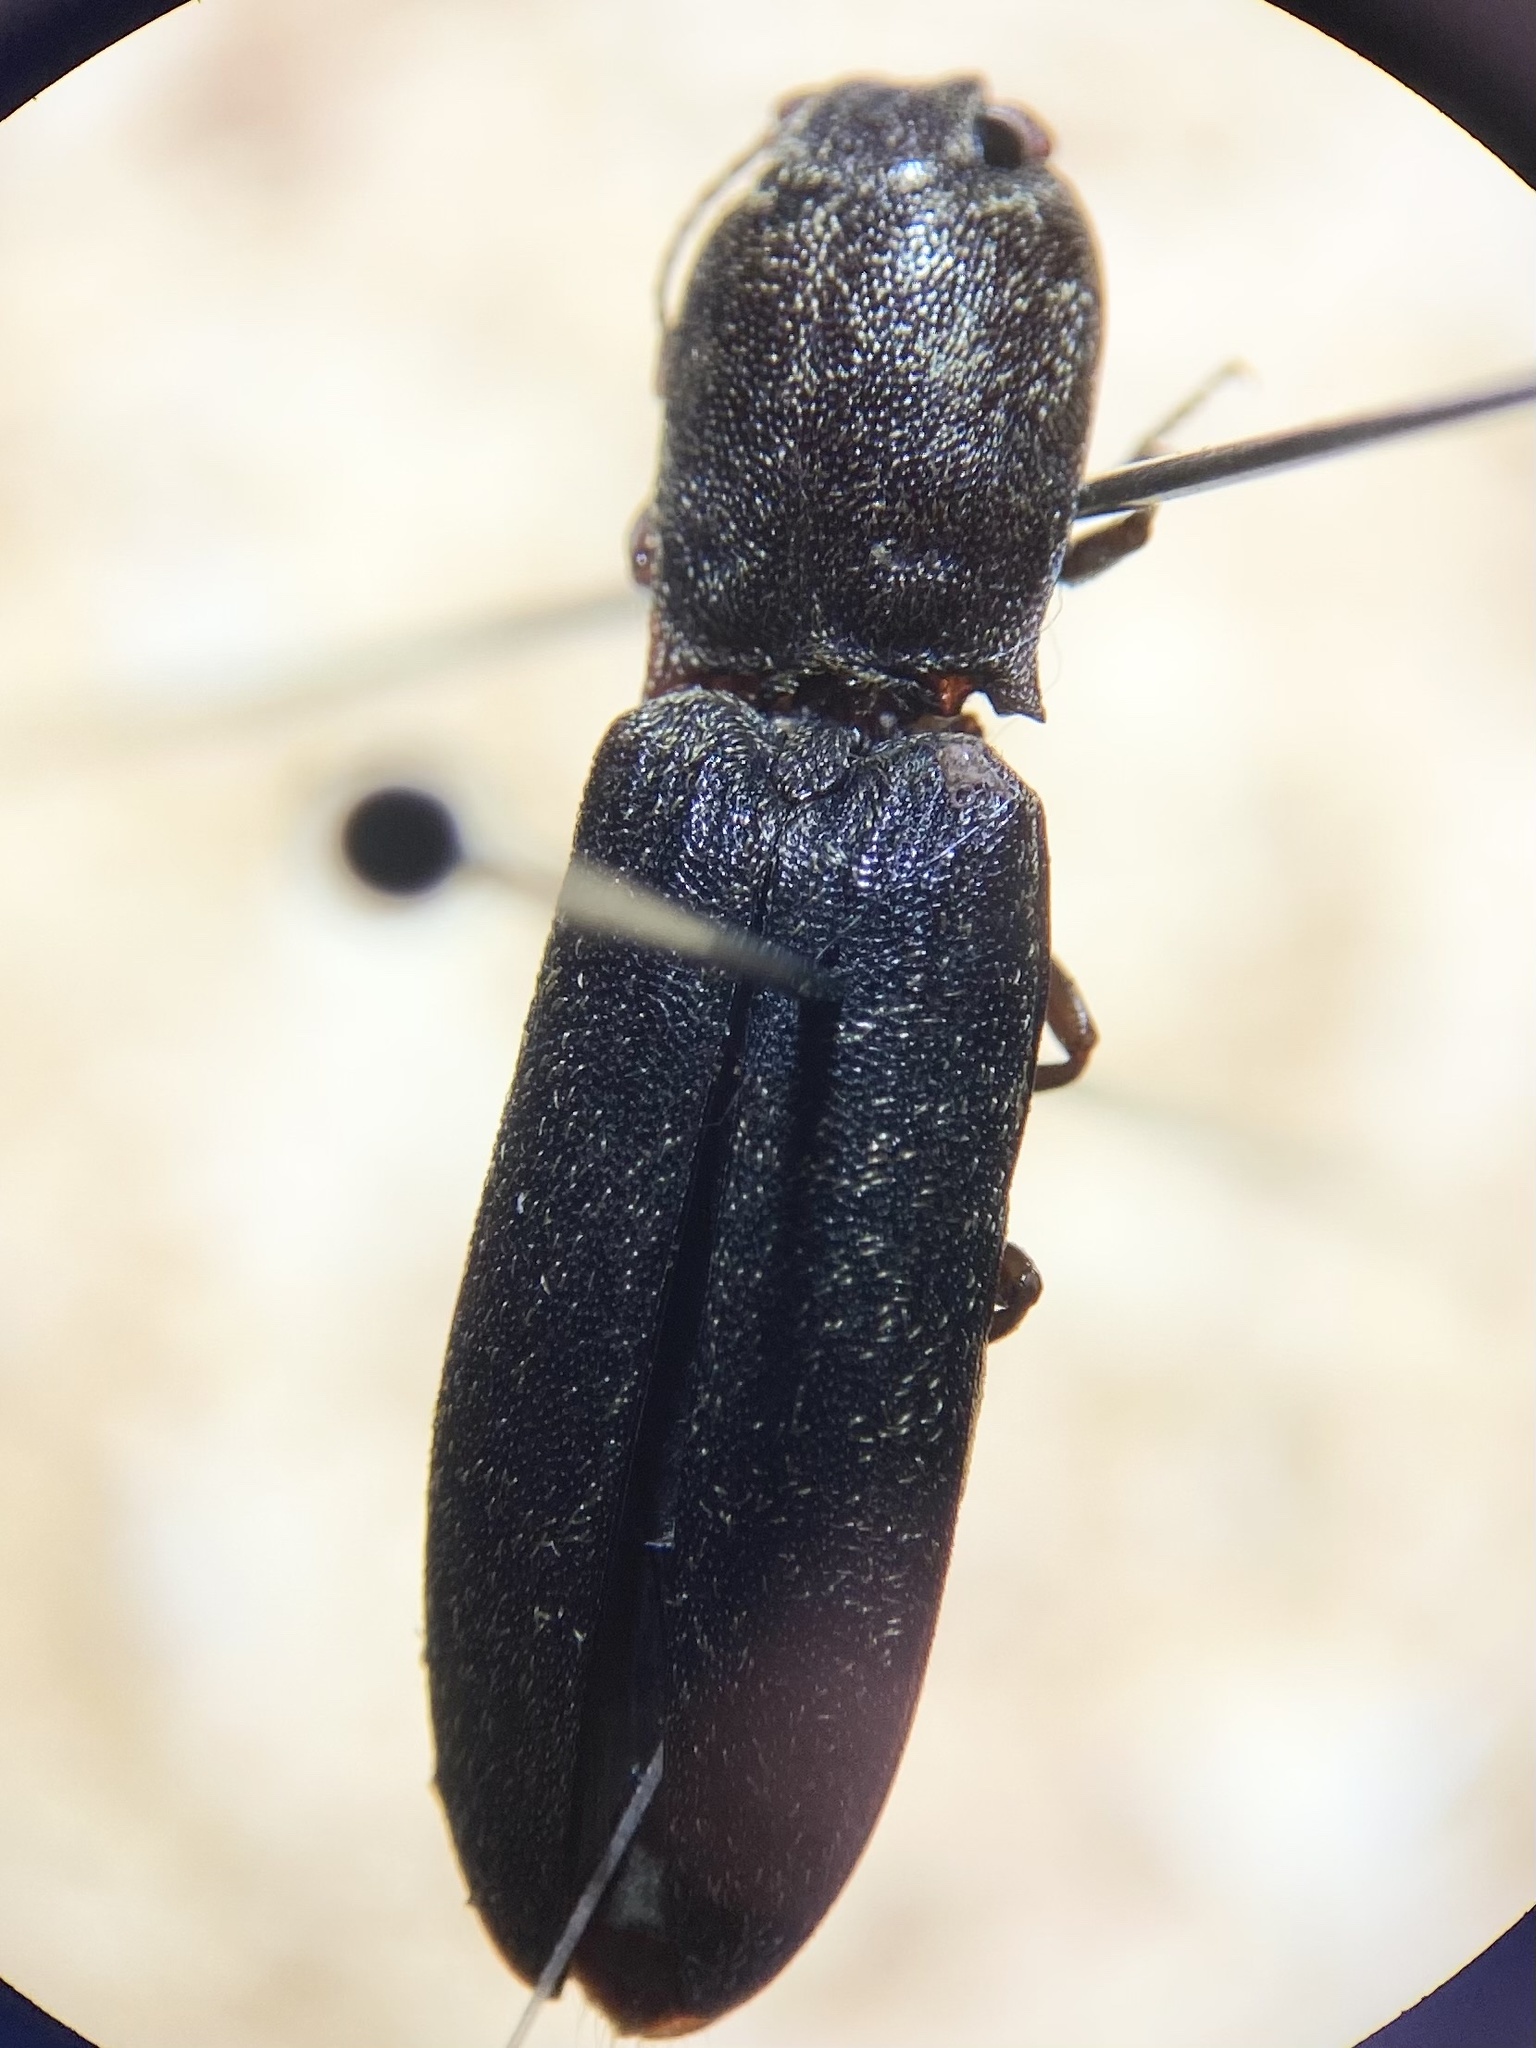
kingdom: Animalia
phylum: Arthropoda
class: Insecta
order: Coleoptera
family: Elateridae
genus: Lacon
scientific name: Lacon avitus
